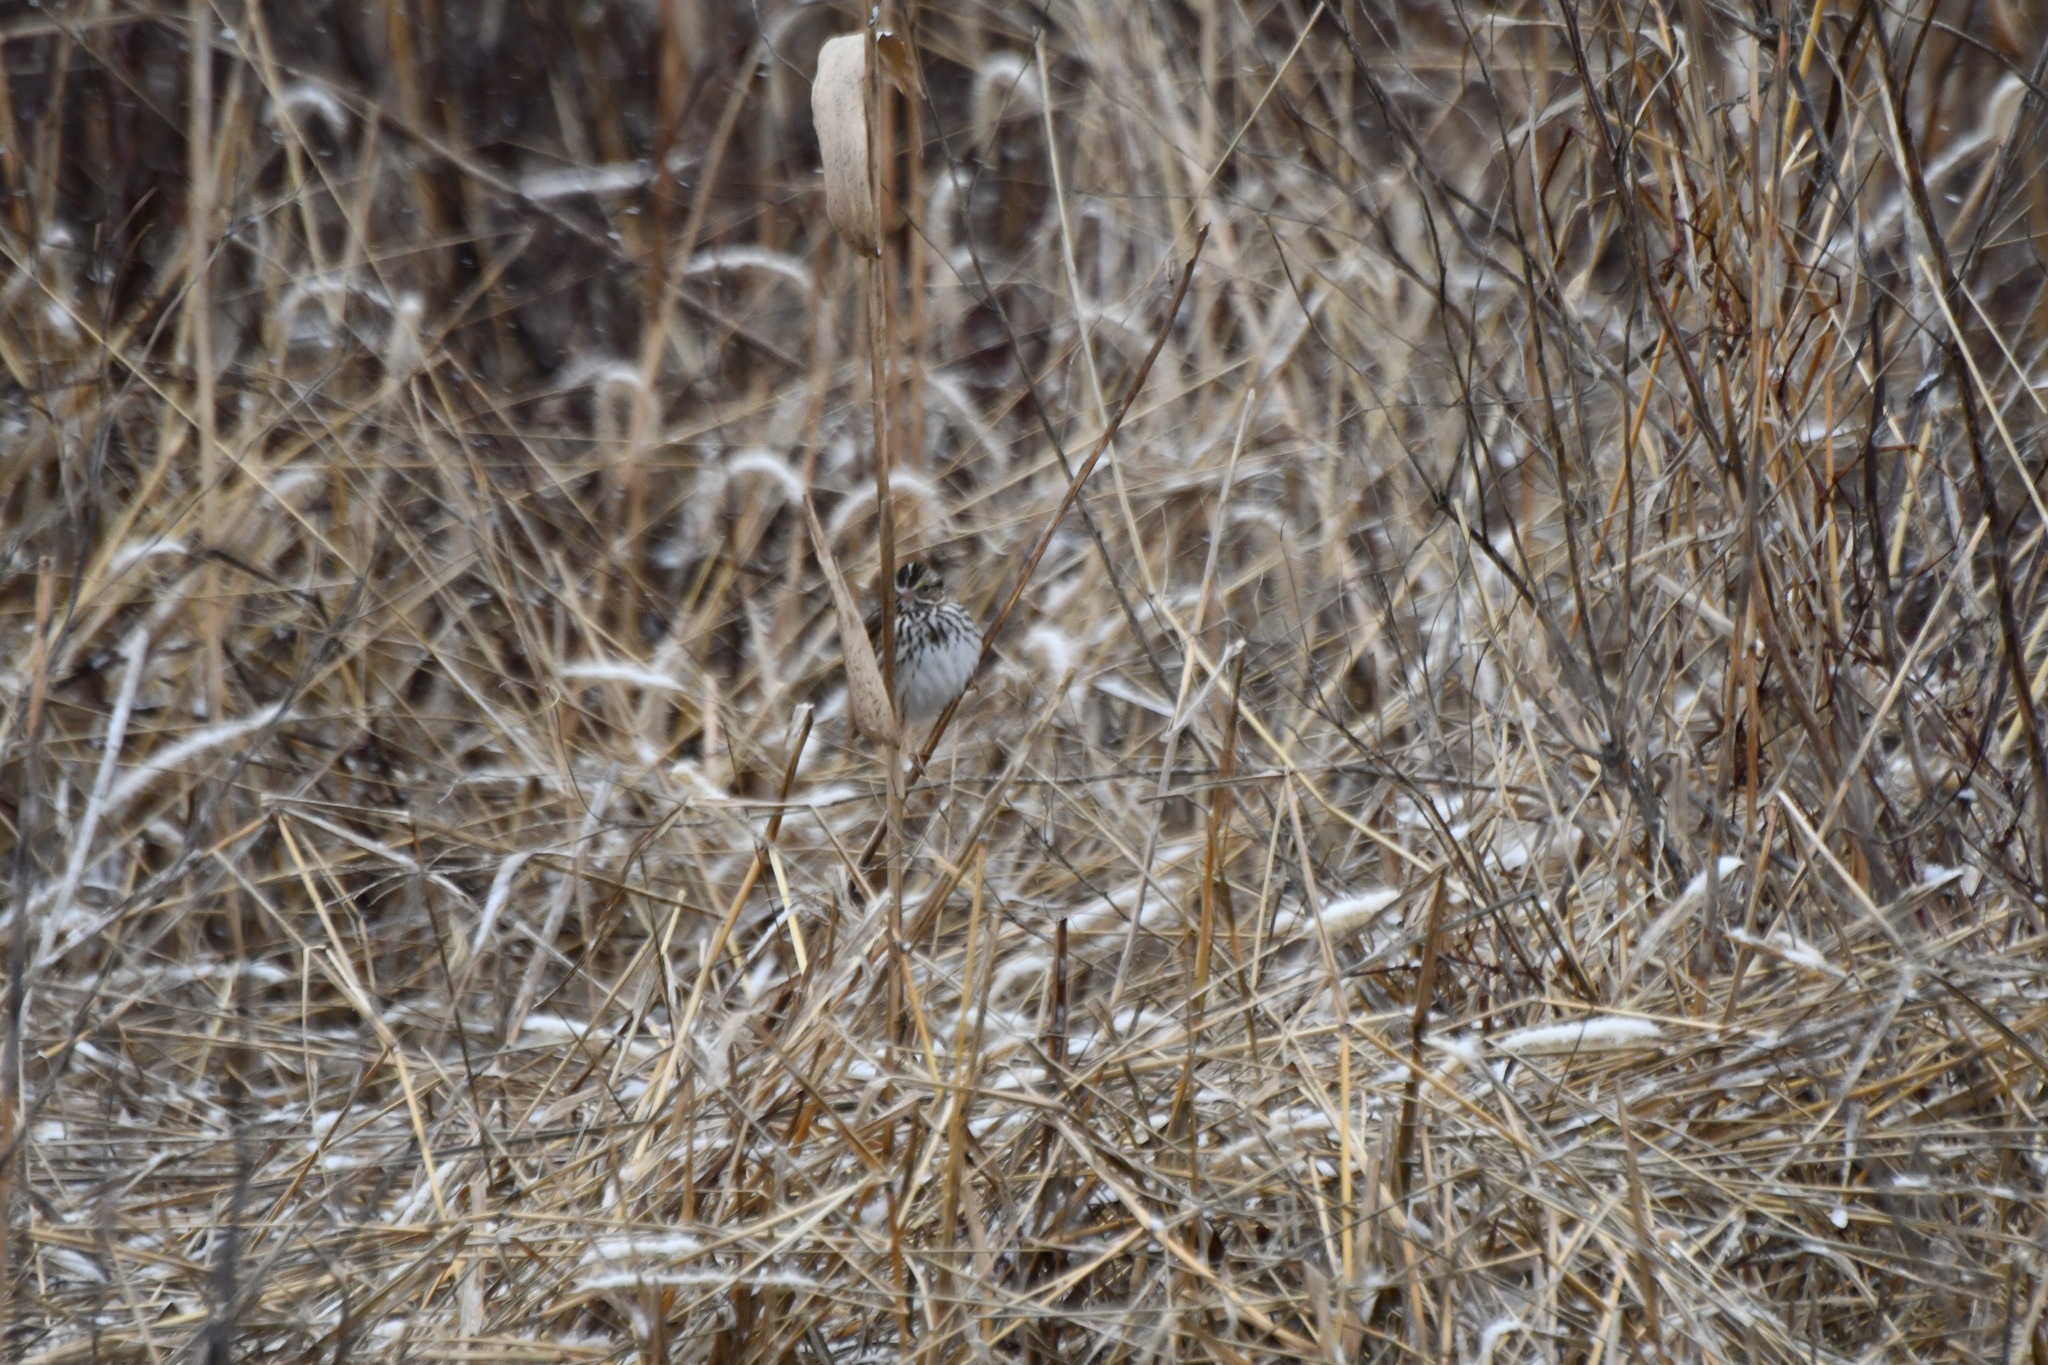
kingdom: Animalia
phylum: Chordata
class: Aves
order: Passeriformes
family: Passerellidae
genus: Passerculus
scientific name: Passerculus sandwichensis
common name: Savannah sparrow
